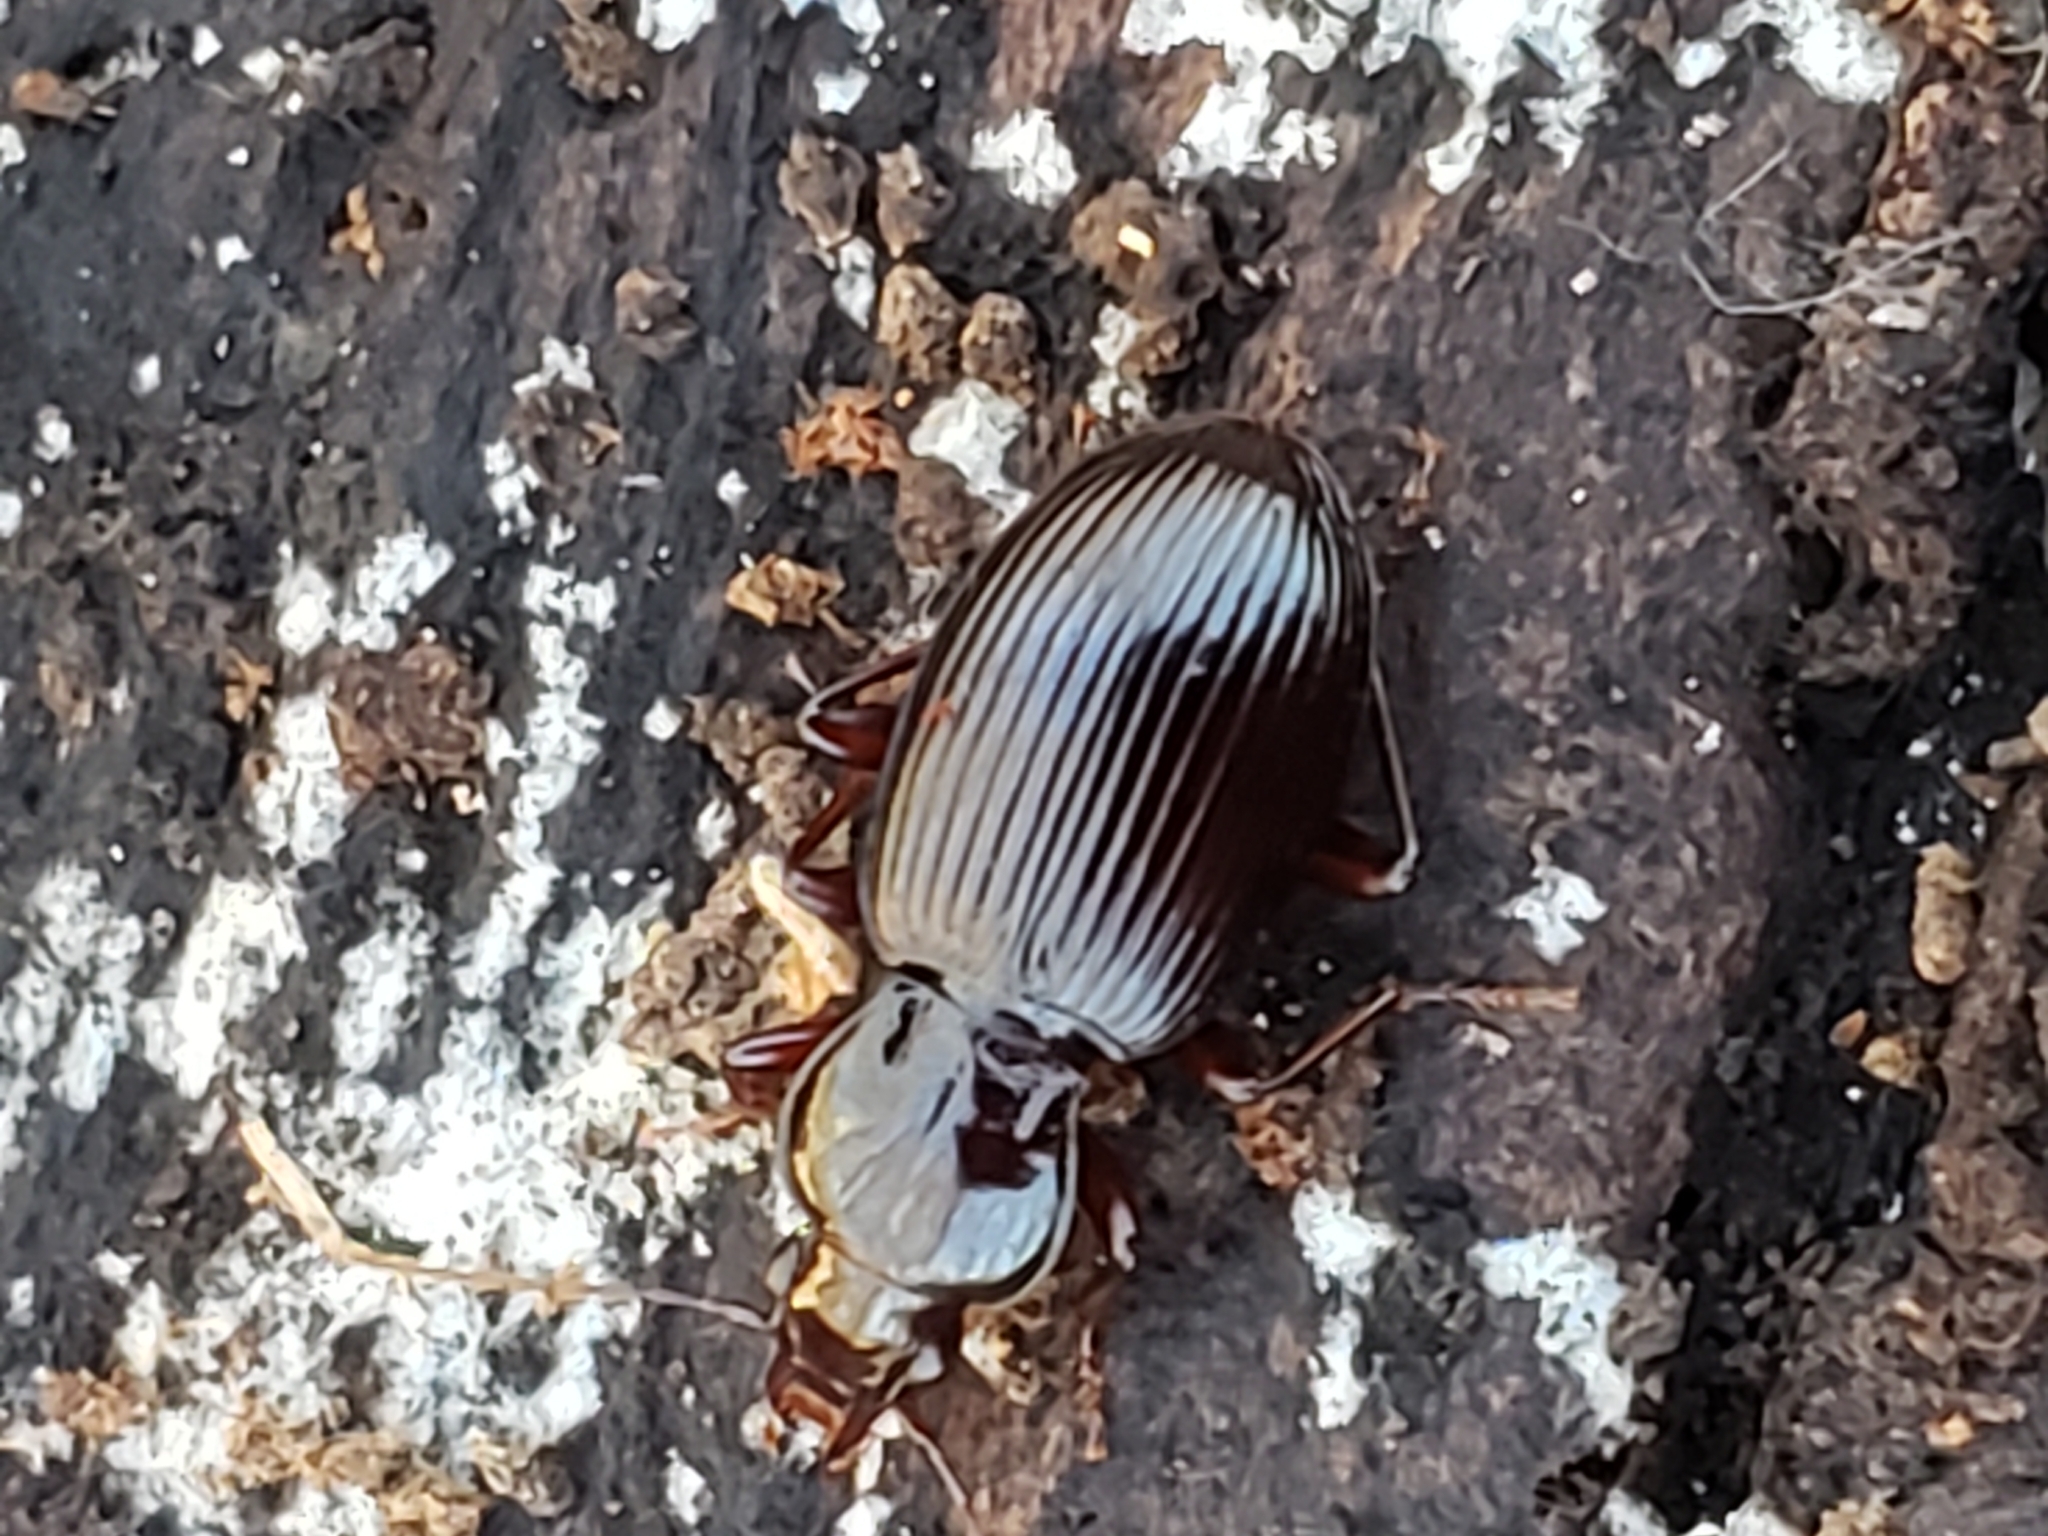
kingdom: Animalia
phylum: Arthropoda
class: Insecta
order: Coleoptera
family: Carabidae
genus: Gastrellarius
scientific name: Gastrellarius honestus
